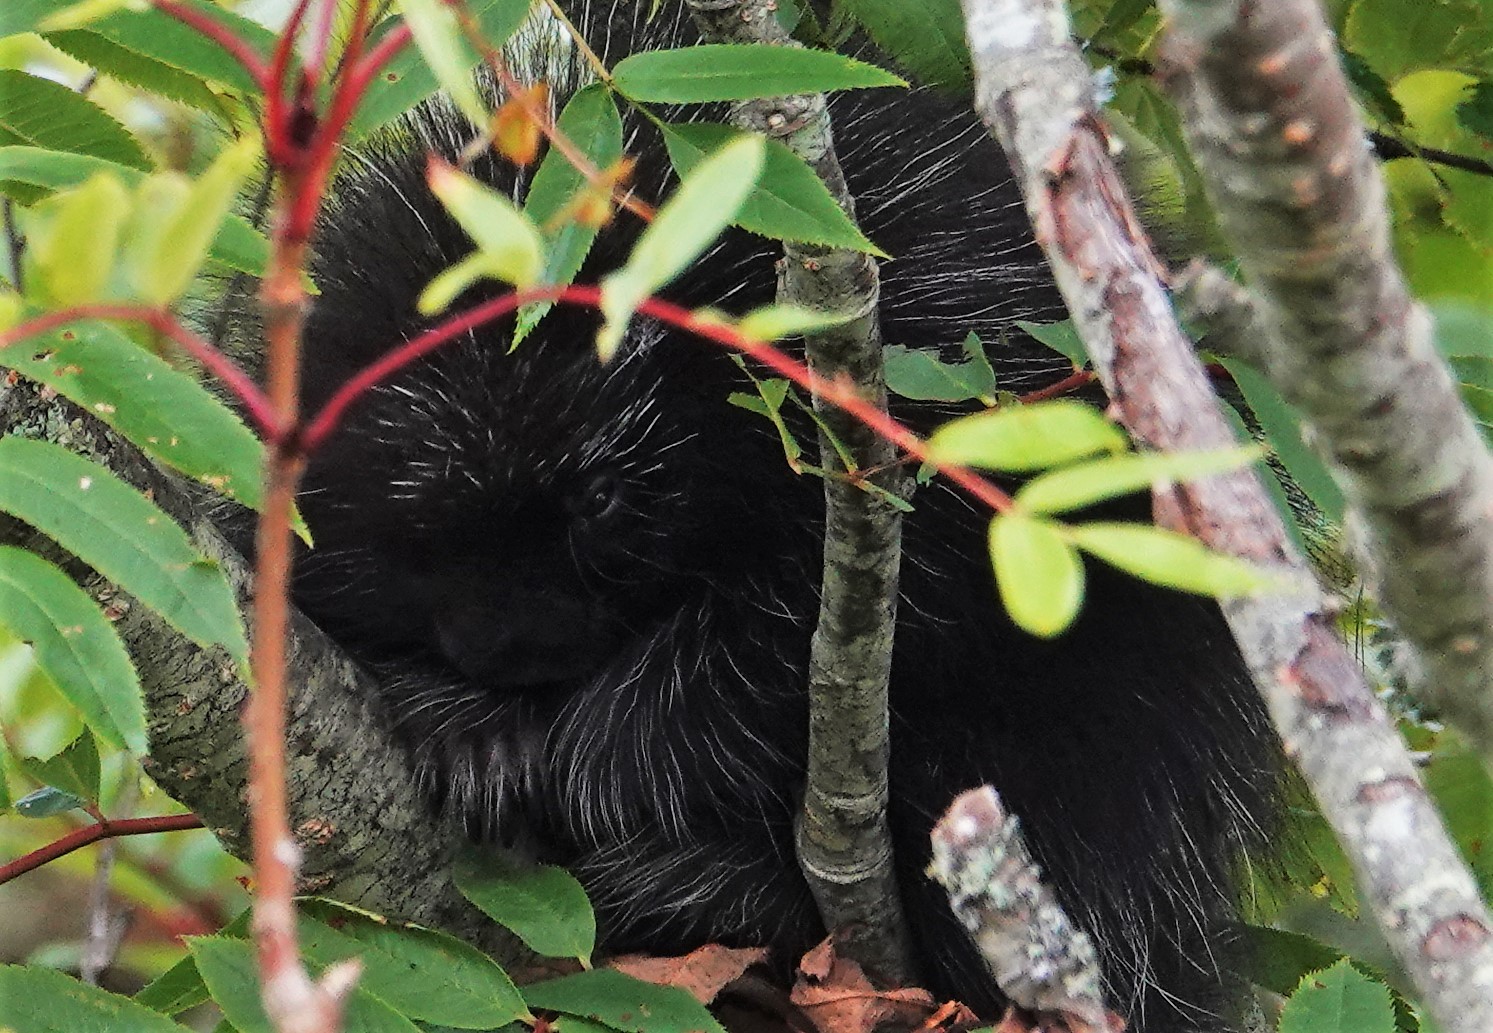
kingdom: Animalia
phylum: Chordata
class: Mammalia
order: Rodentia
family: Erethizontidae
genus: Erethizon
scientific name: Erethizon dorsatus
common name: North american porcupine
